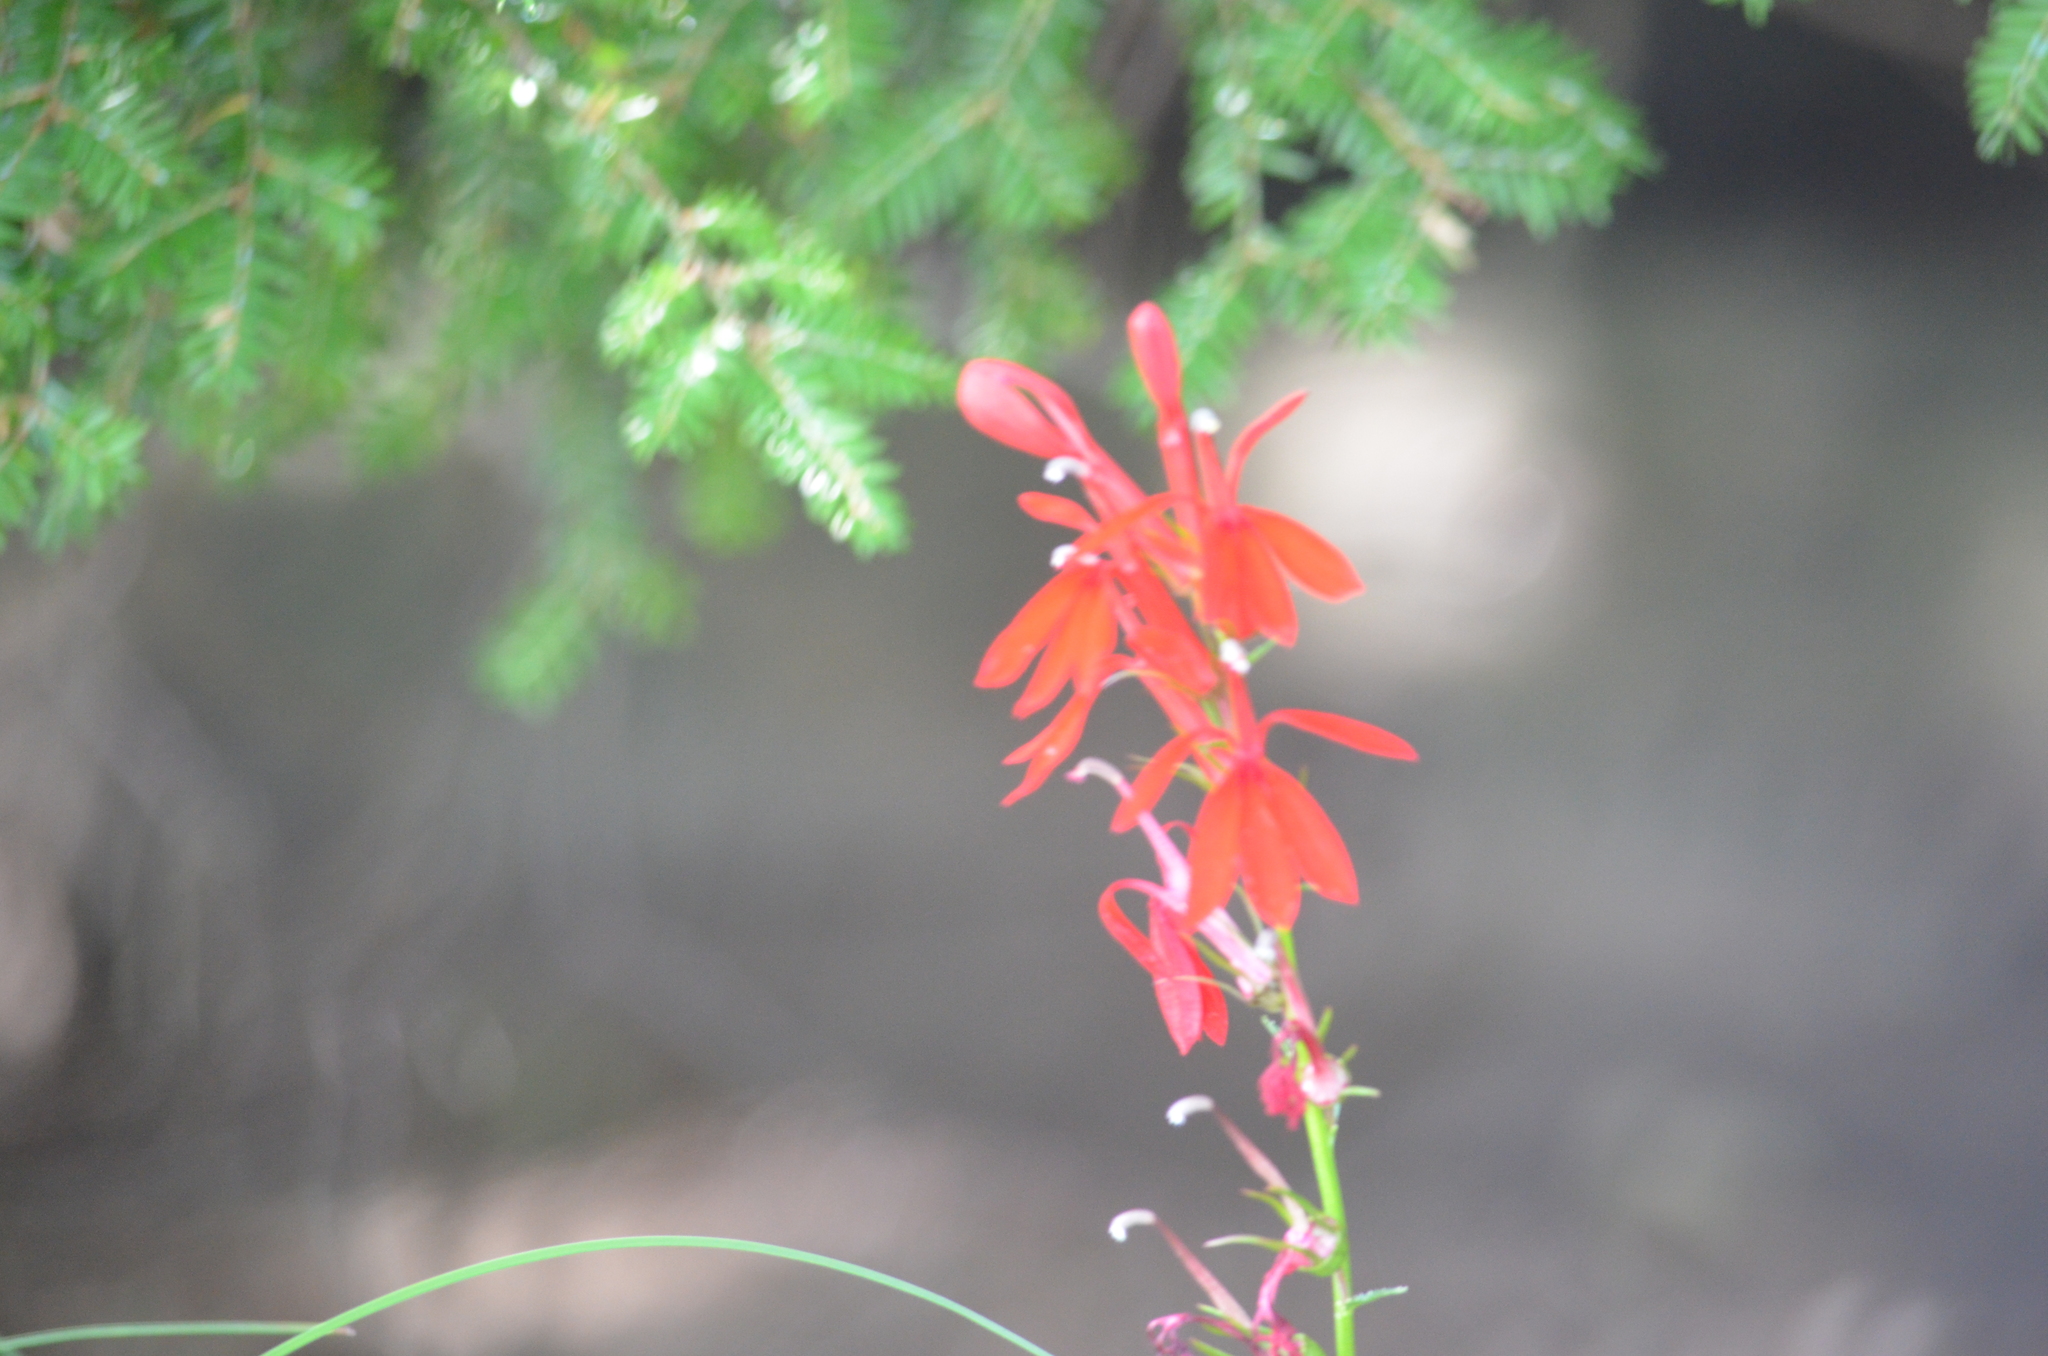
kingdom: Plantae
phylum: Tracheophyta
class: Magnoliopsida
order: Asterales
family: Campanulaceae
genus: Lobelia
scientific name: Lobelia cardinalis
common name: Cardinal flower
